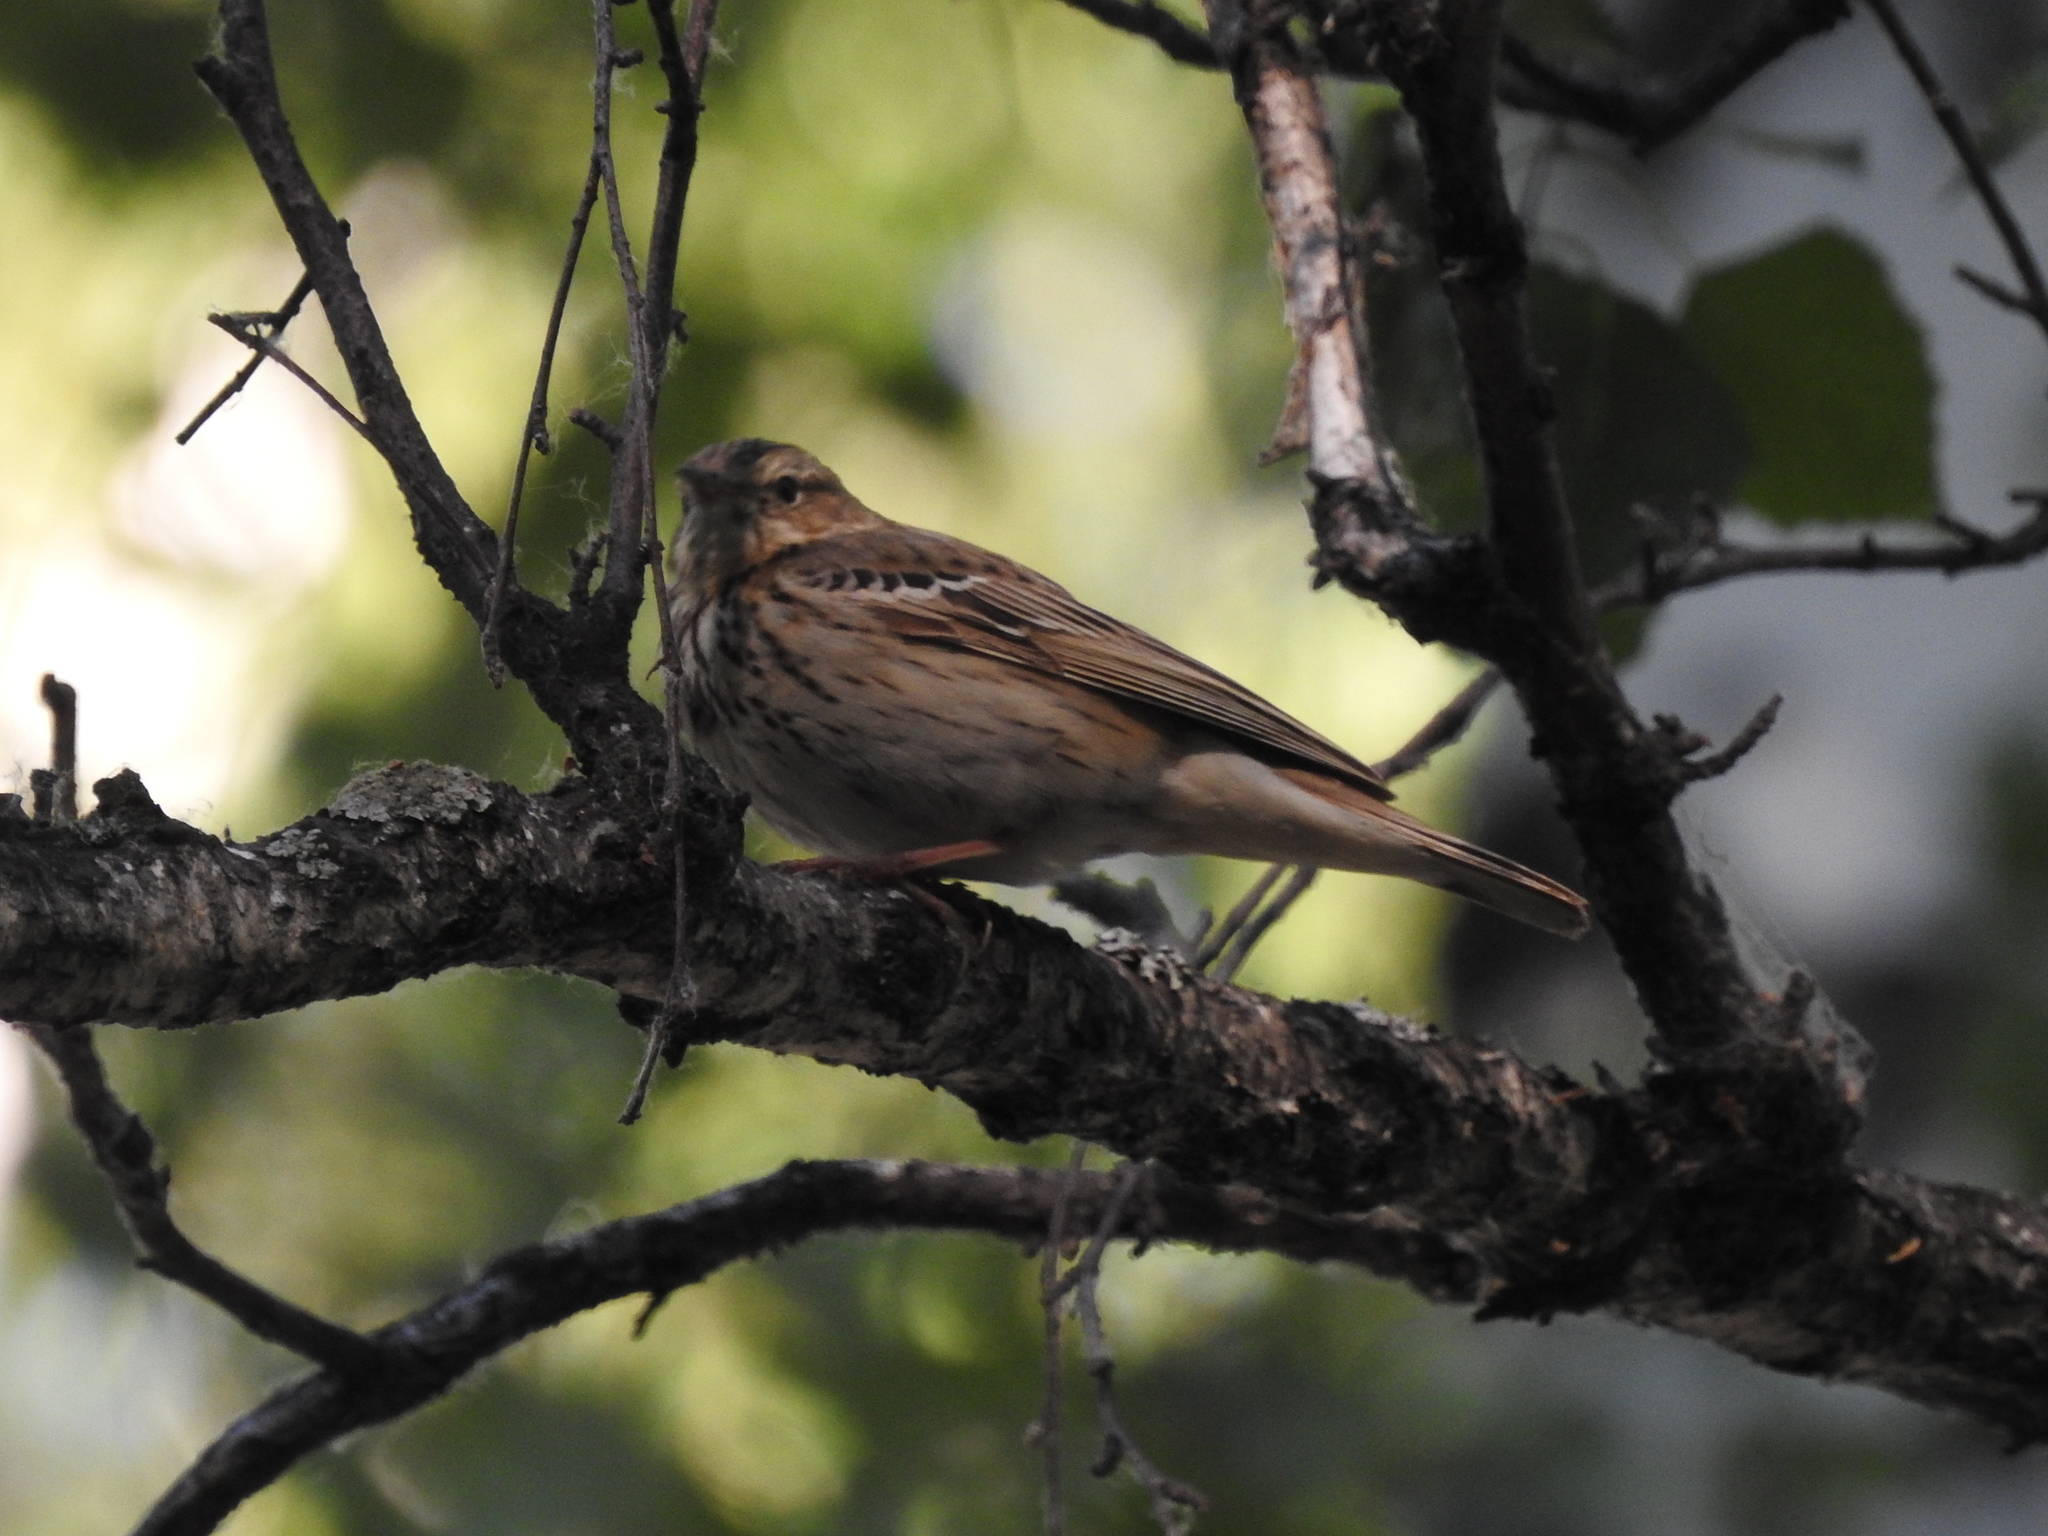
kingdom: Animalia
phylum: Chordata
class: Aves
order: Passeriformes
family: Motacillidae
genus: Anthus
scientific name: Anthus trivialis
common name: Tree pipit
